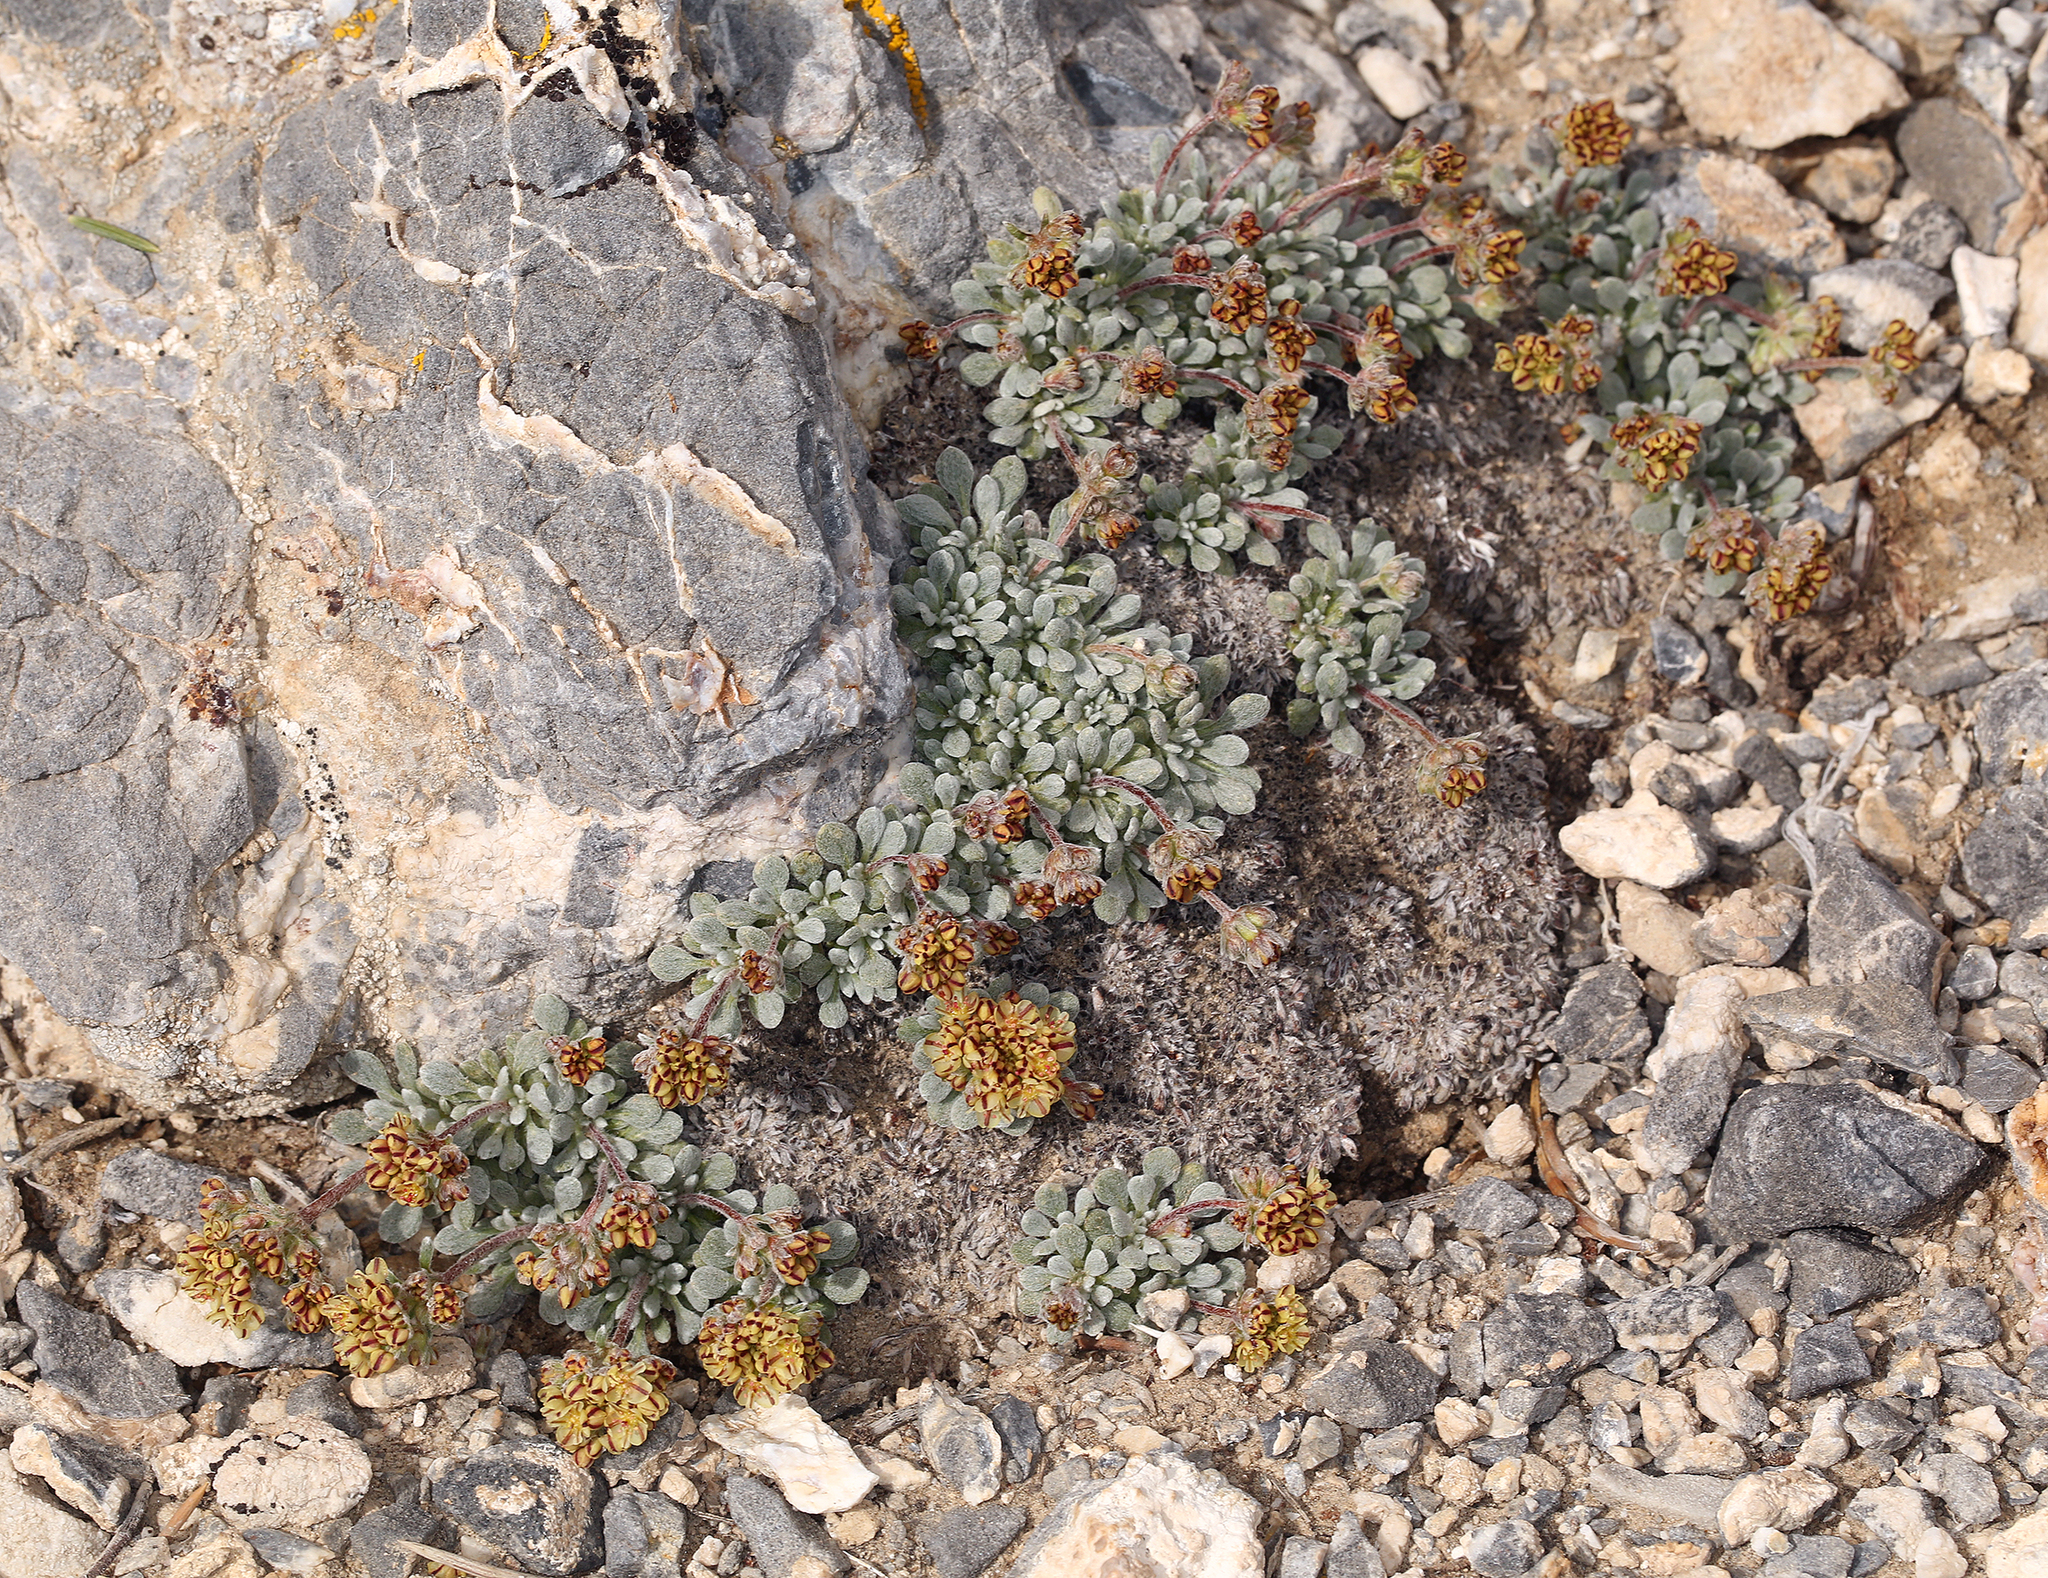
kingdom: Plantae
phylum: Tracheophyta
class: Magnoliopsida
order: Caryophyllales
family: Polygonaceae
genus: Eriogonum
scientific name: Eriogonum gilmanii
